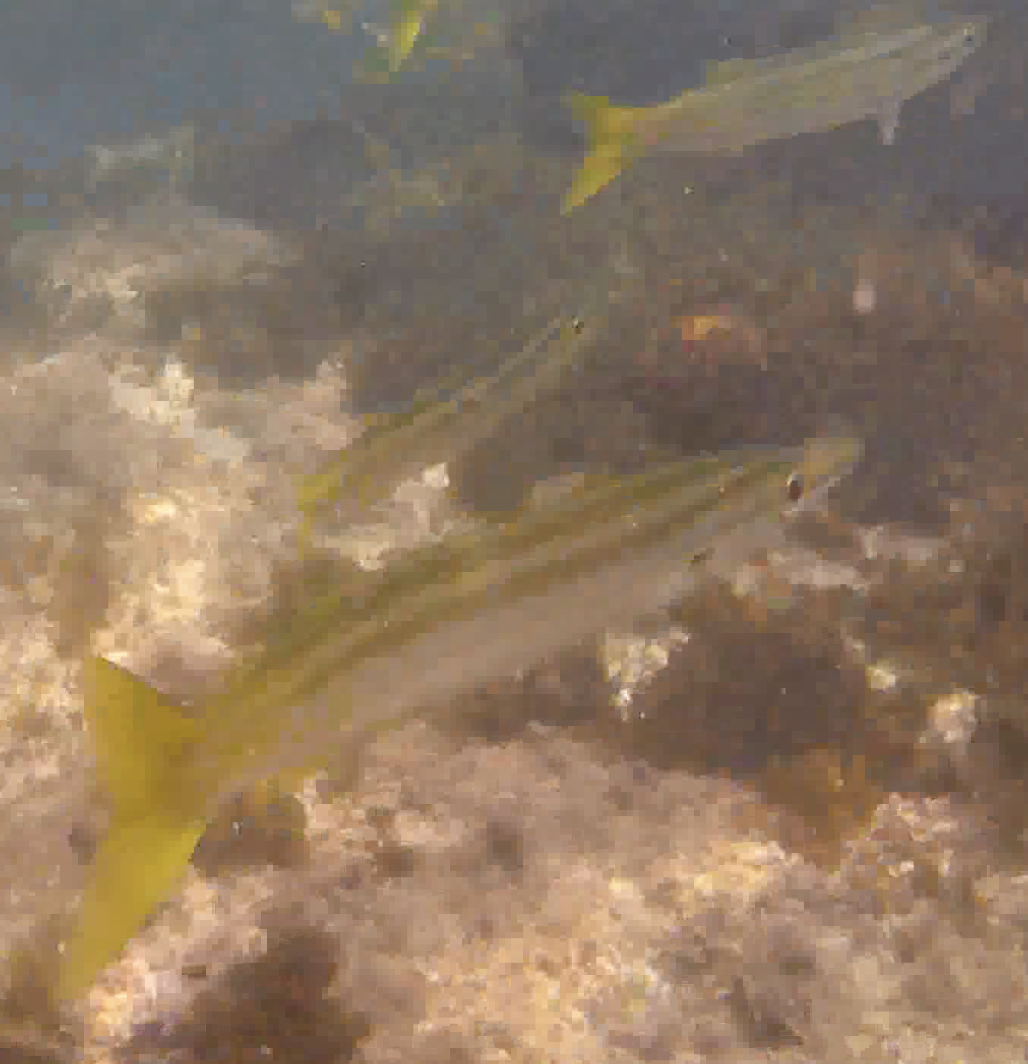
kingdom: Animalia
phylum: Chordata
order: Perciformes
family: Sphyraenidae
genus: Sphyraena
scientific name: Sphyraena obtusata
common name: Obtuse barracuda
